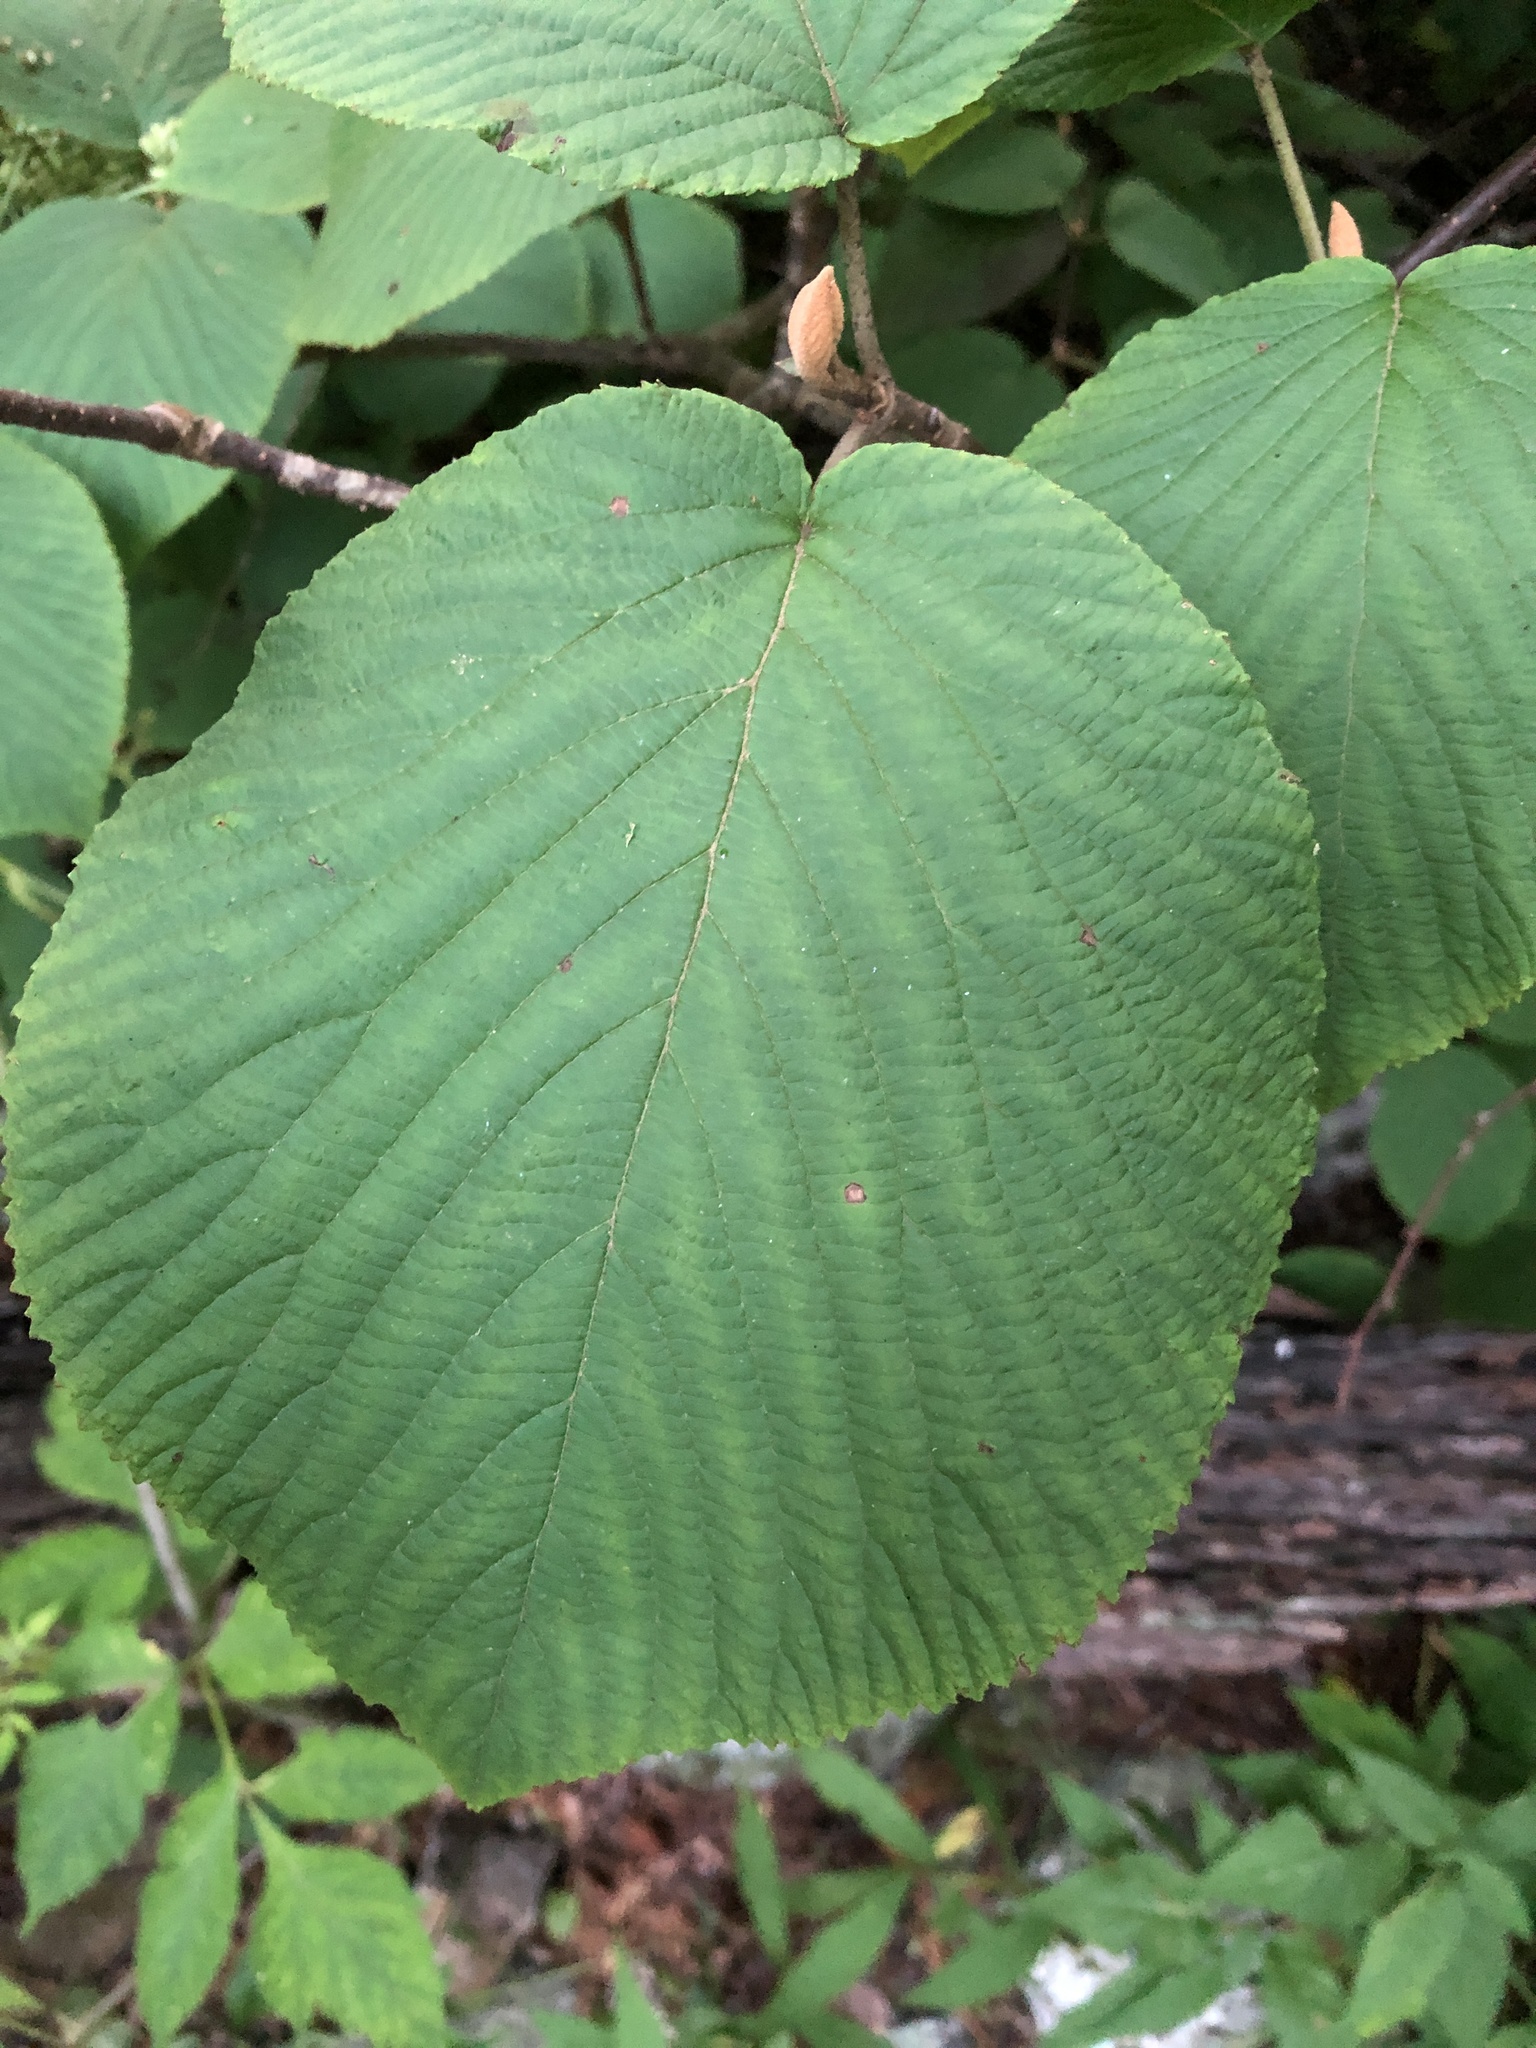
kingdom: Plantae
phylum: Tracheophyta
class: Magnoliopsida
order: Dipsacales
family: Viburnaceae
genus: Viburnum
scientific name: Viburnum lantanoides
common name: Hobblebush
